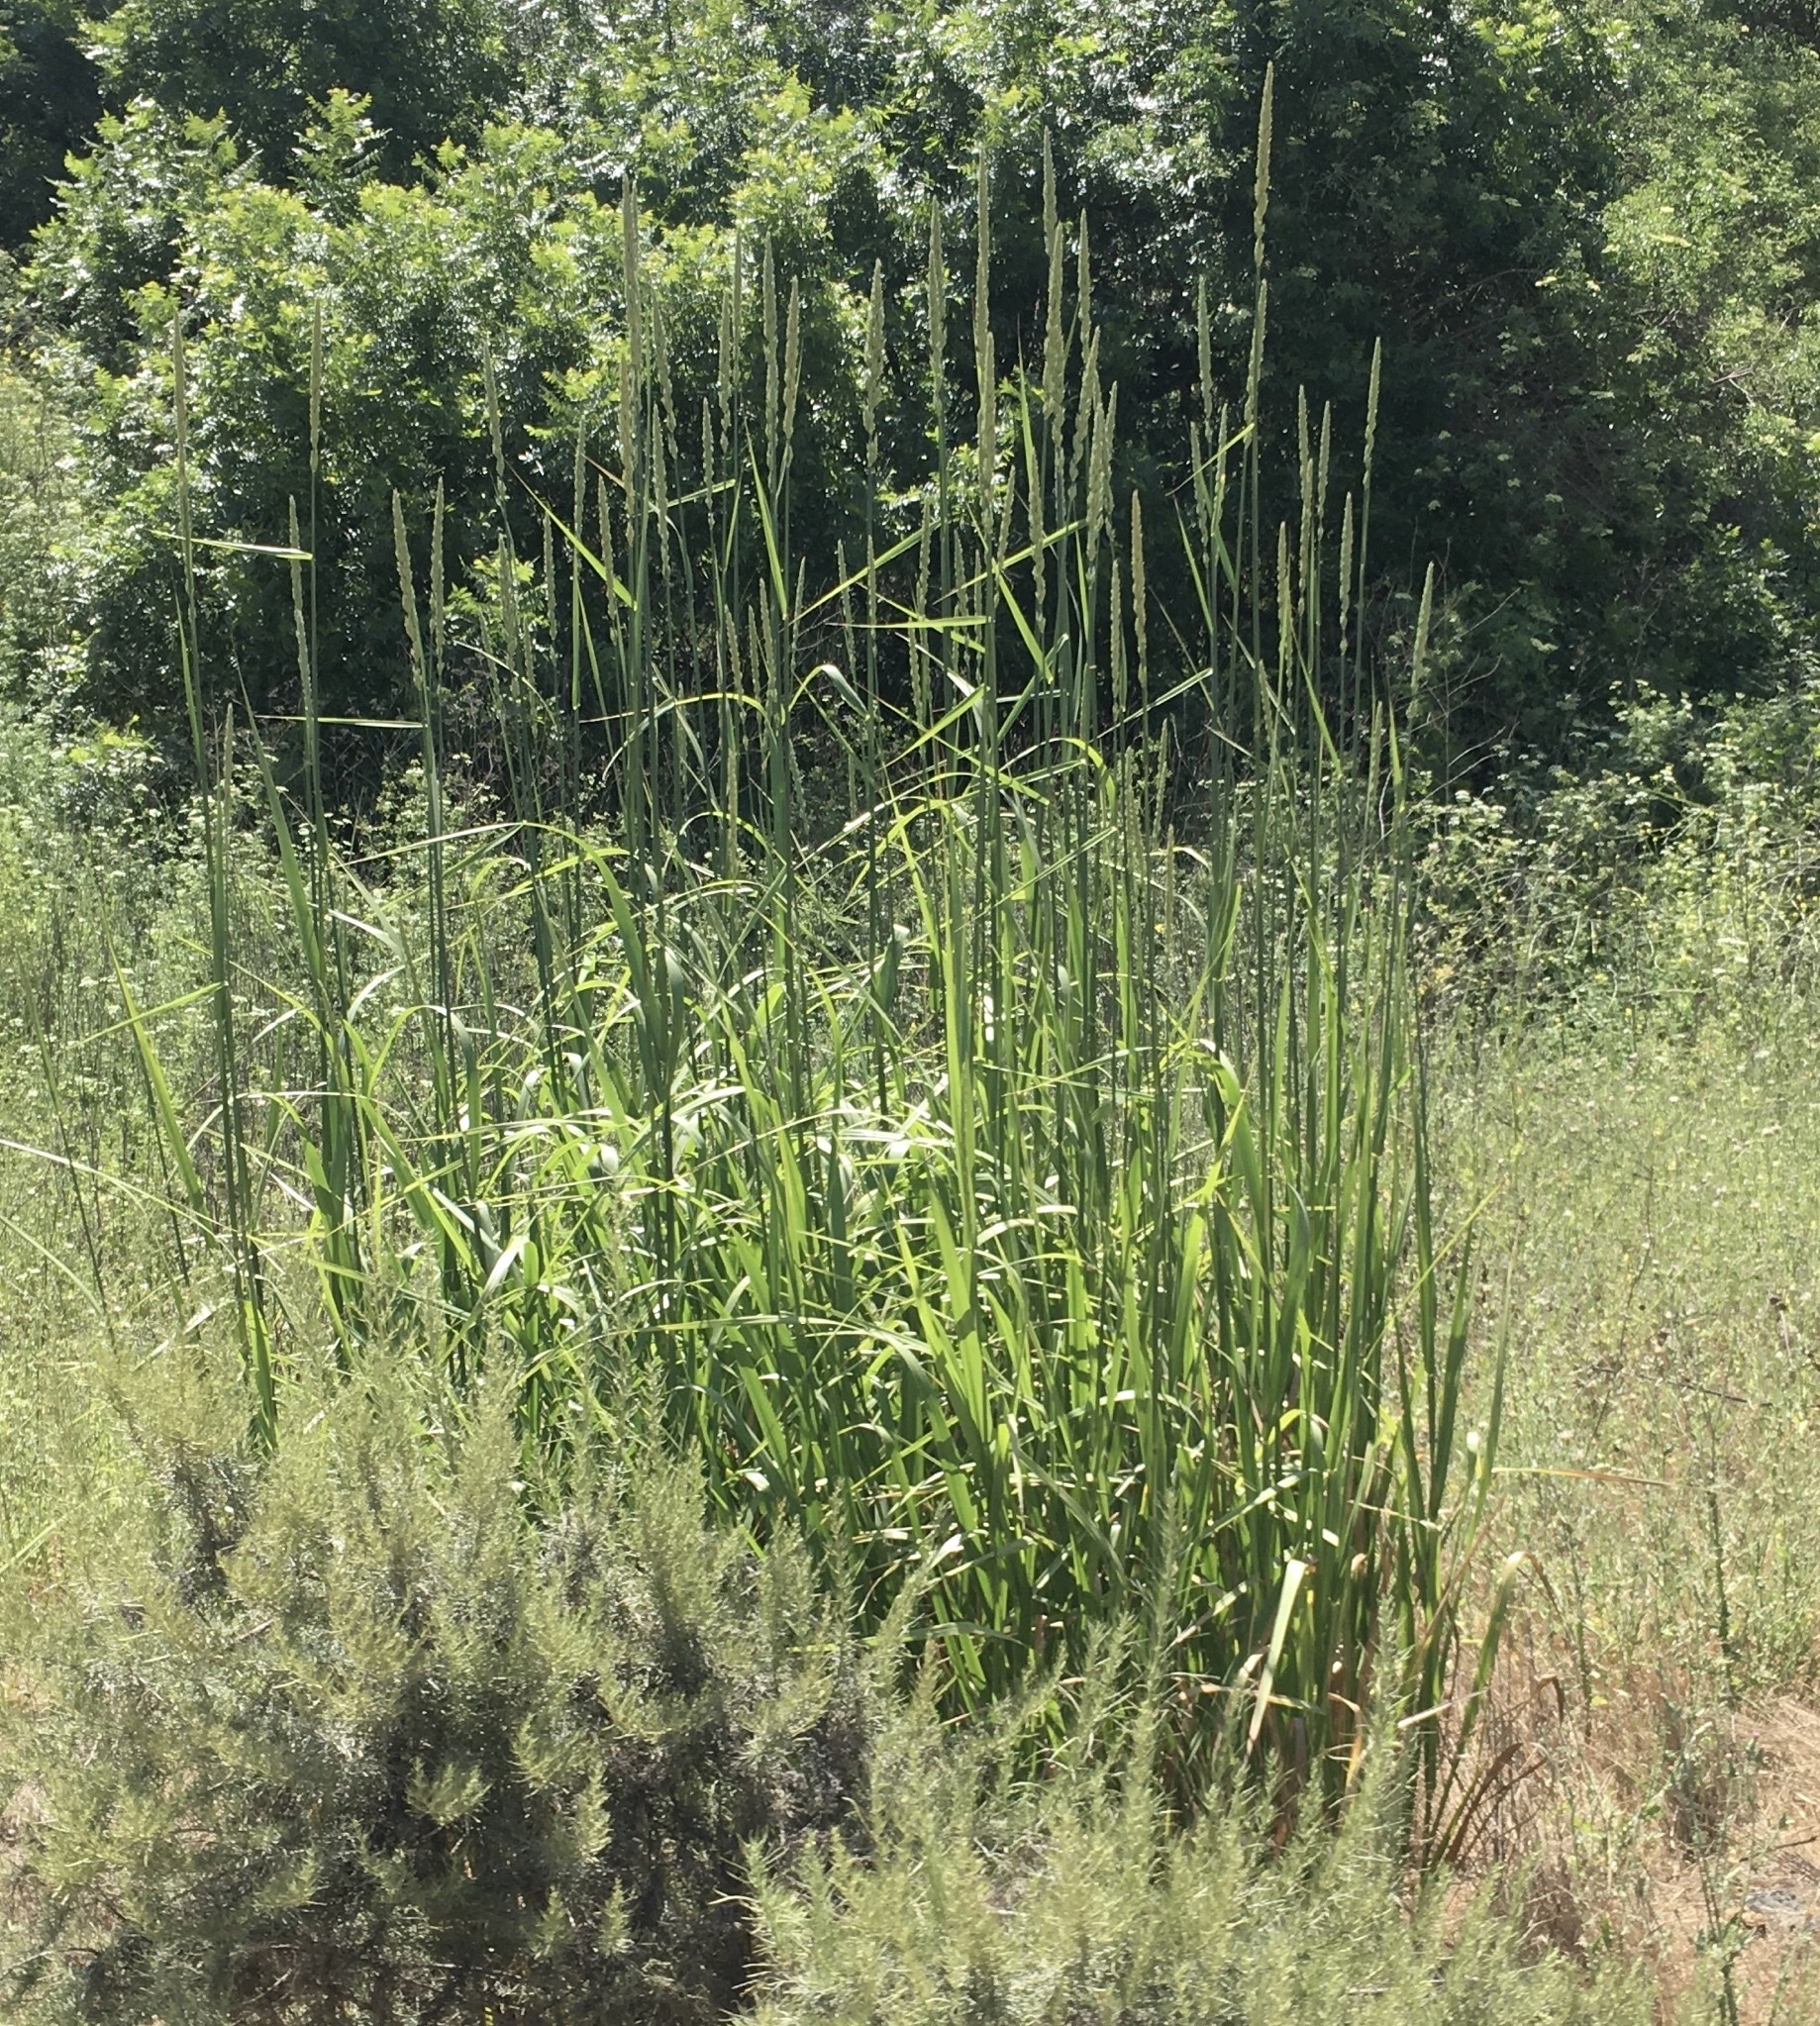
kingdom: Plantae
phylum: Tracheophyta
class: Liliopsida
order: Poales
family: Poaceae
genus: Leymus
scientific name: Leymus condensatus
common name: Giant wild rye
